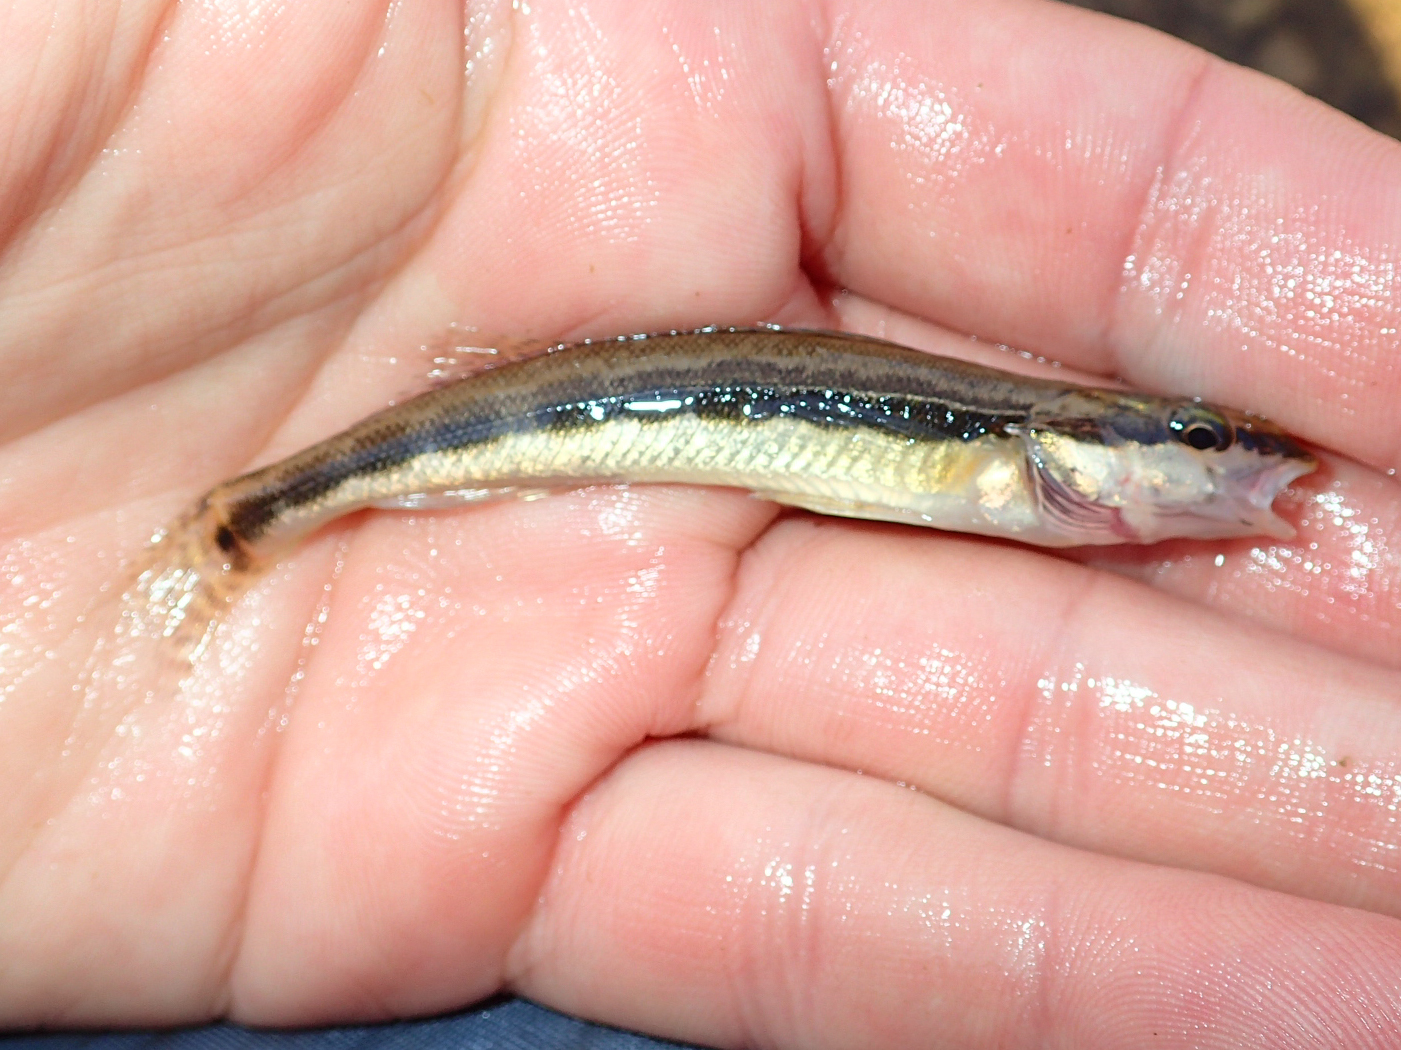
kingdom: Animalia
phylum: Chordata
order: Perciformes
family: Percidae
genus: Percina
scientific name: Percina macrocephala
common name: Longhead darter
